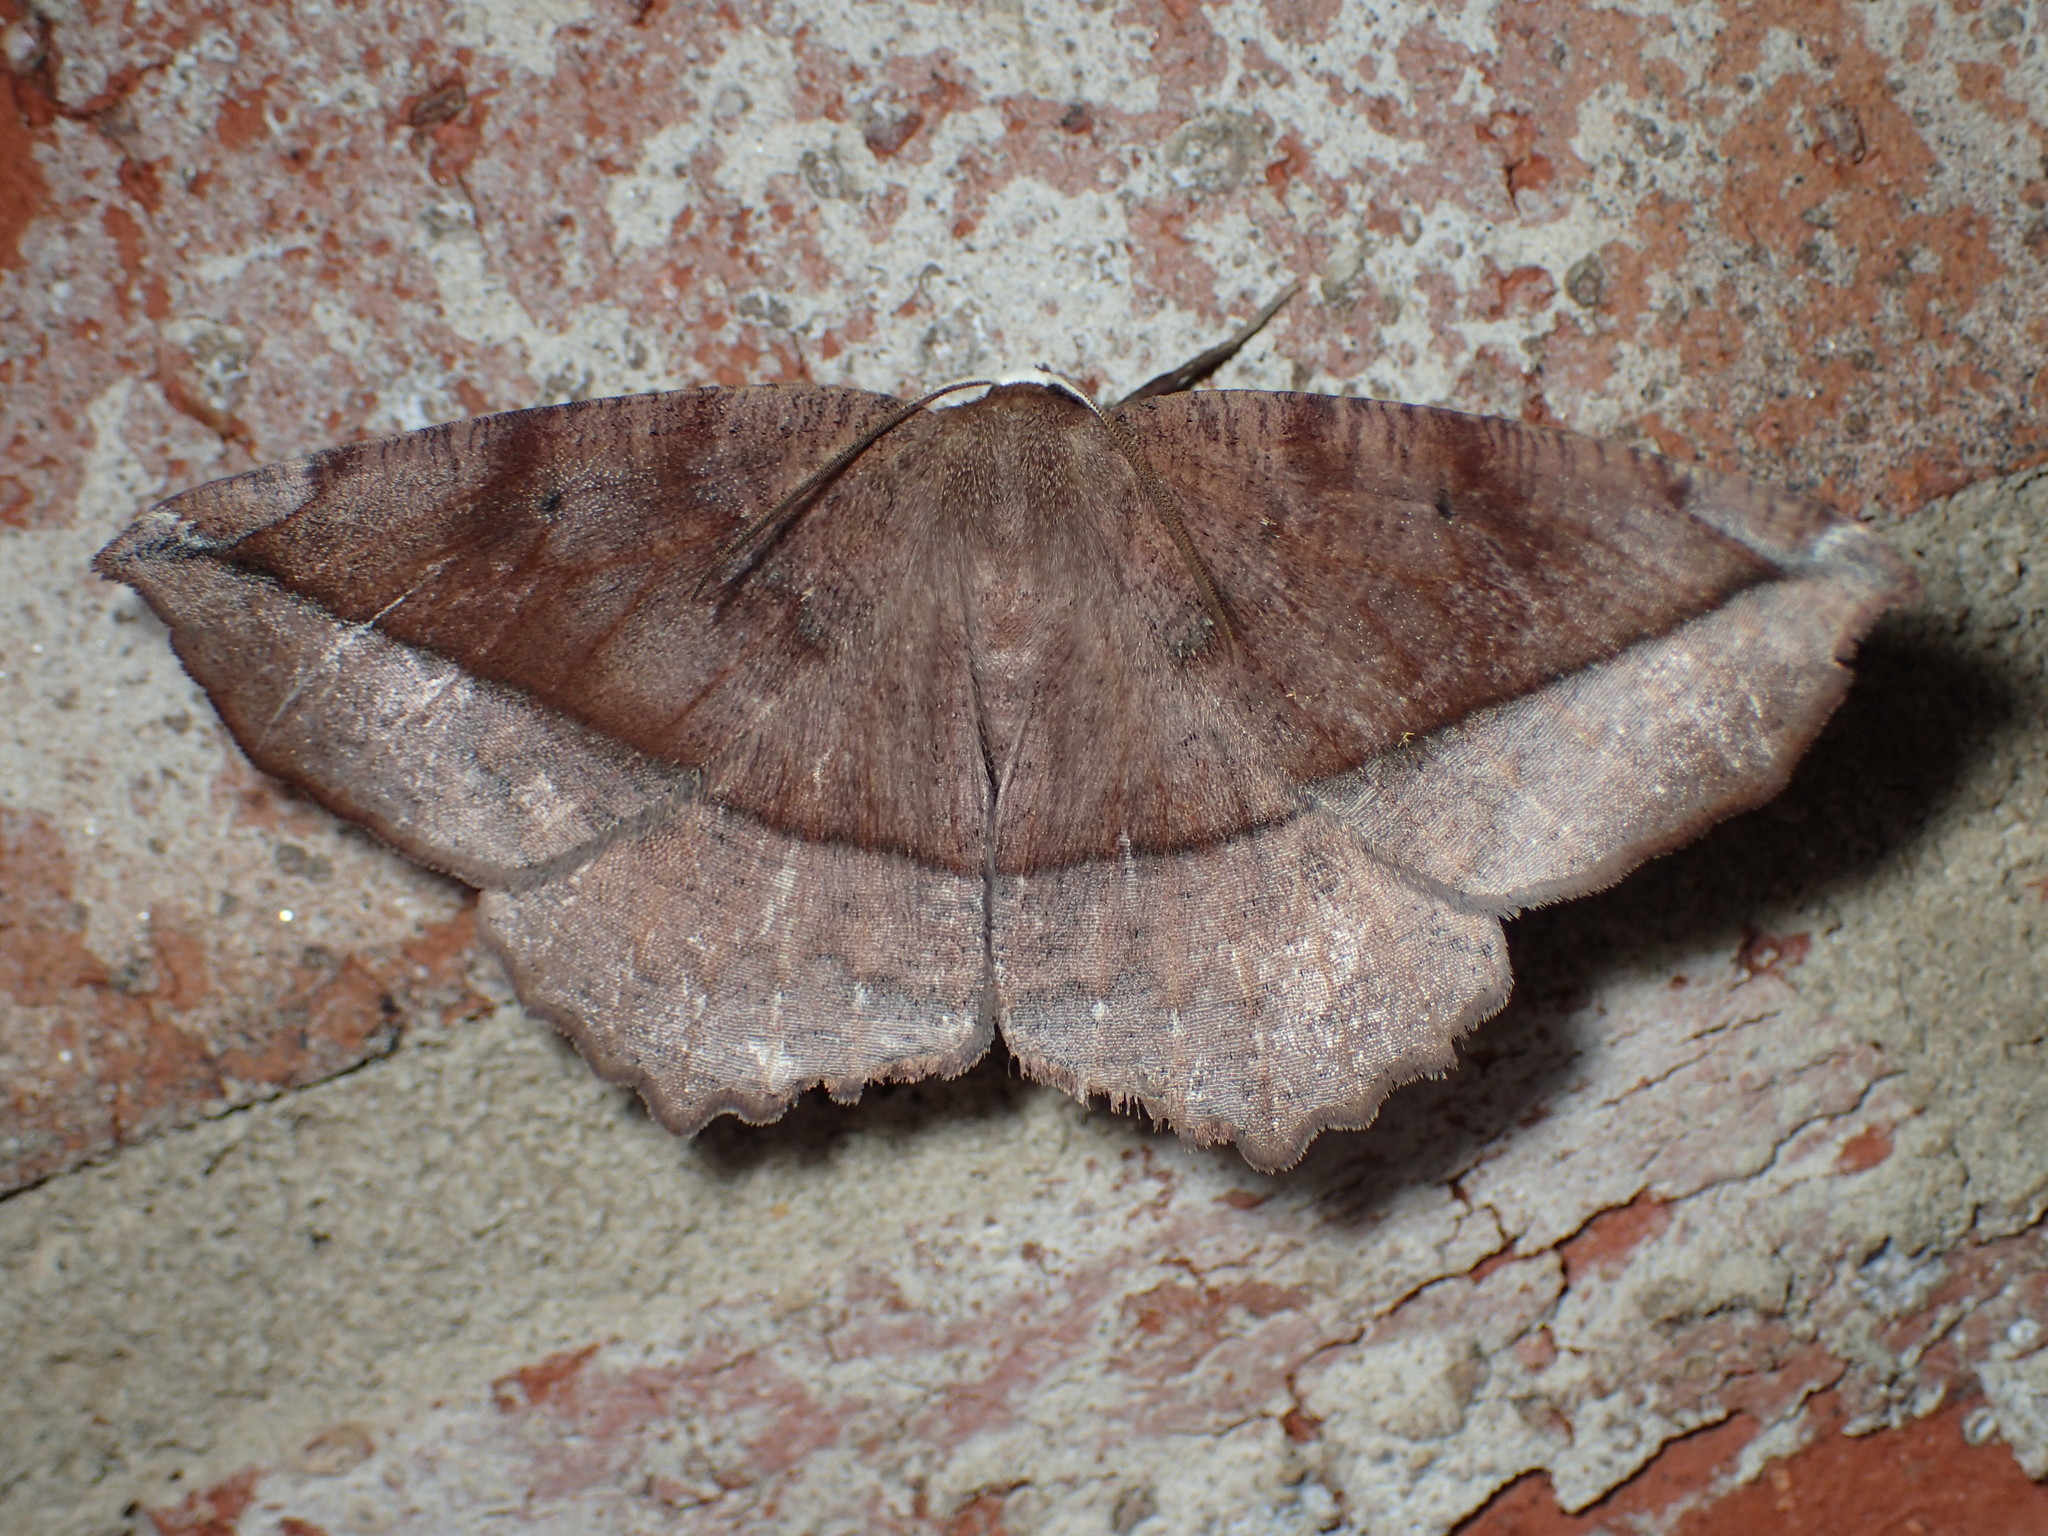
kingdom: Animalia
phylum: Arthropoda
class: Insecta
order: Lepidoptera
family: Geometridae
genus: Eutrapela
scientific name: Eutrapela clemataria
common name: Curved-toothed geometer
